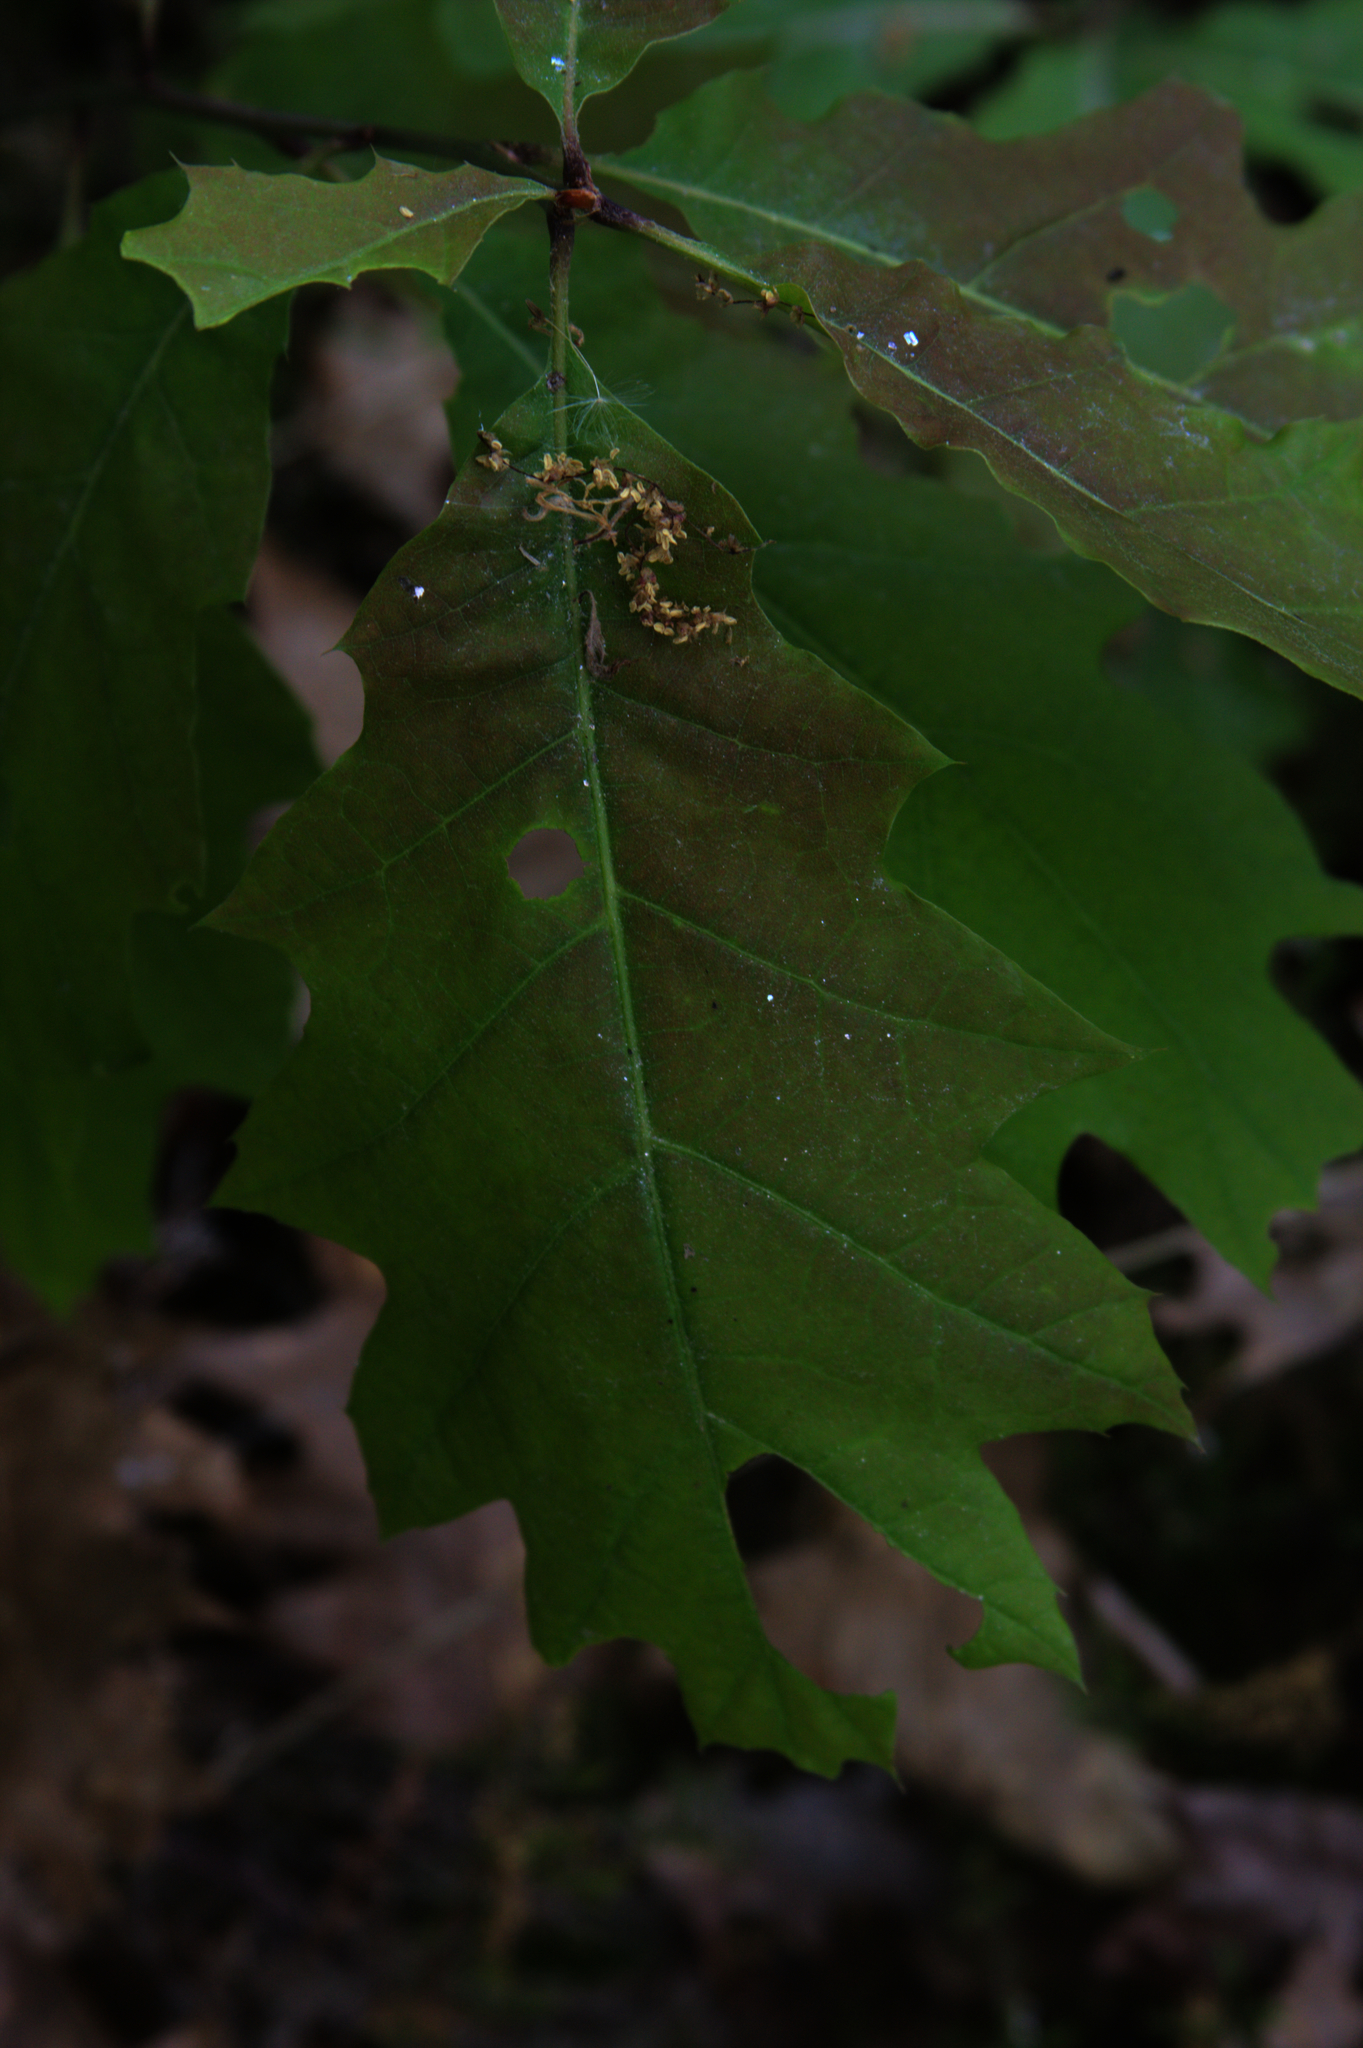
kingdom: Plantae
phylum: Tracheophyta
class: Magnoliopsida
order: Fagales
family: Fagaceae
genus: Quercus
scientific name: Quercus rubra
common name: Red oak
